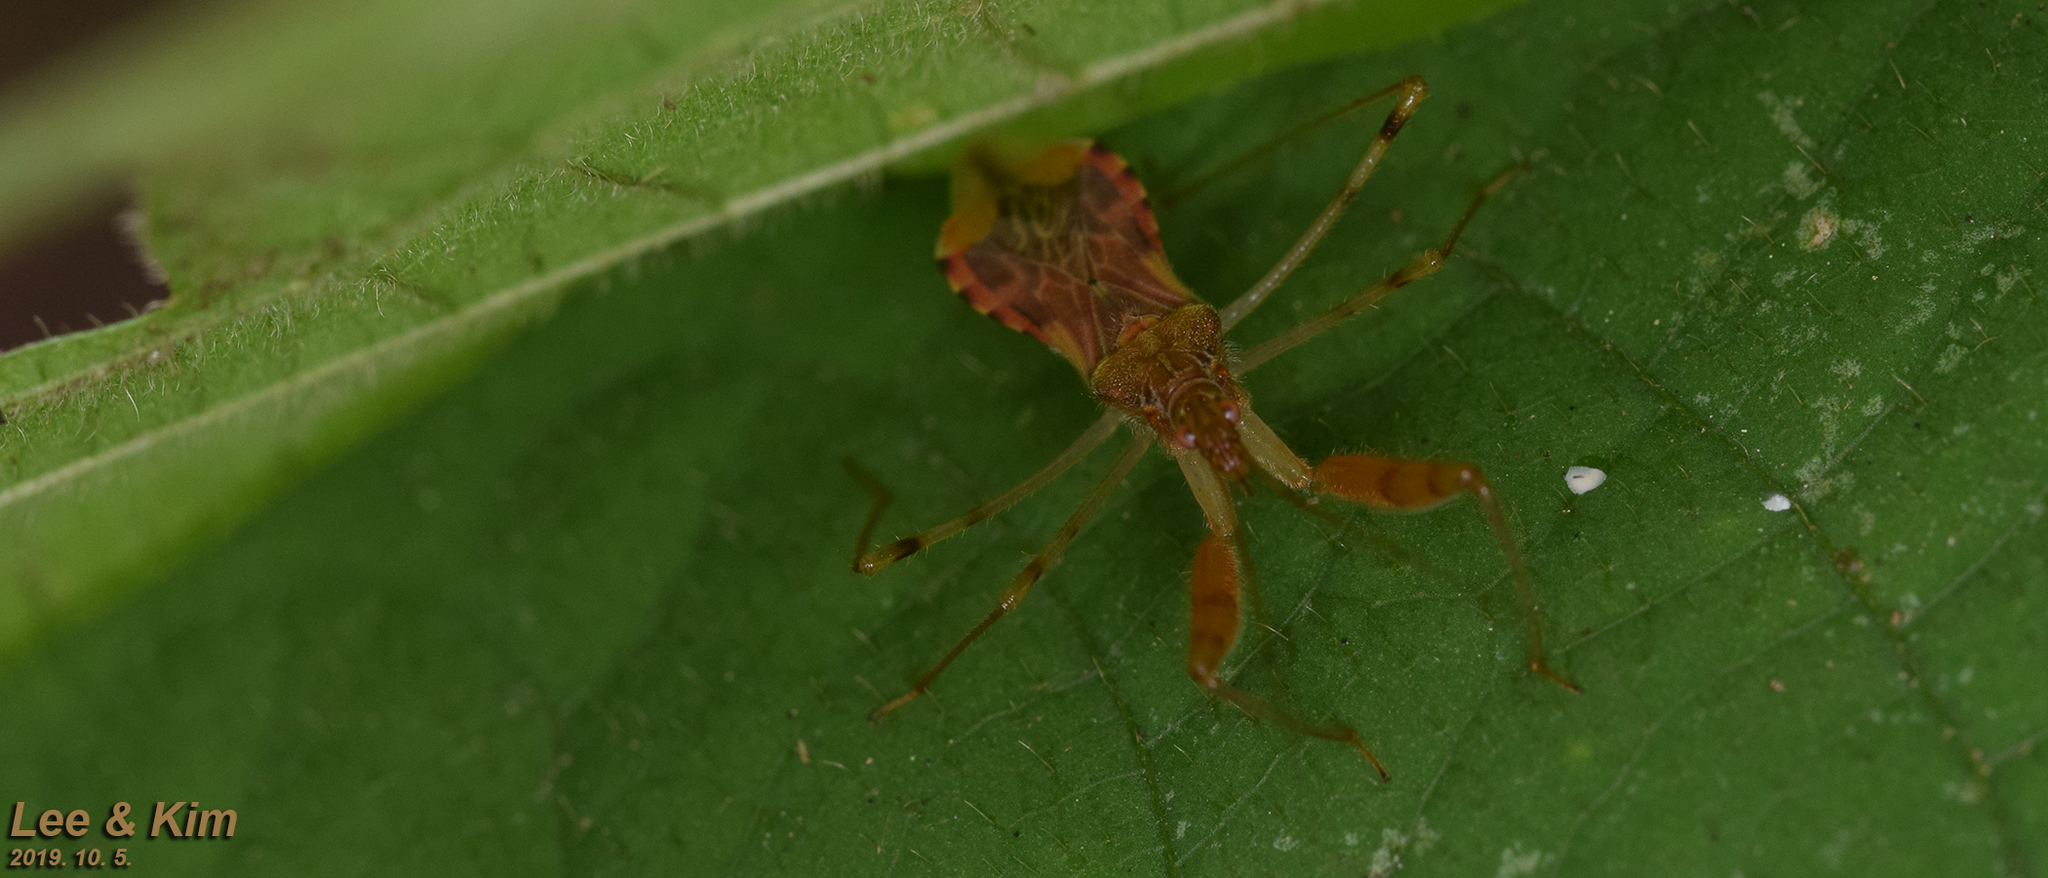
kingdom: Animalia
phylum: Arthropoda
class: Insecta
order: Hemiptera
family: Nabidae
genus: Gorpis
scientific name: Gorpis
